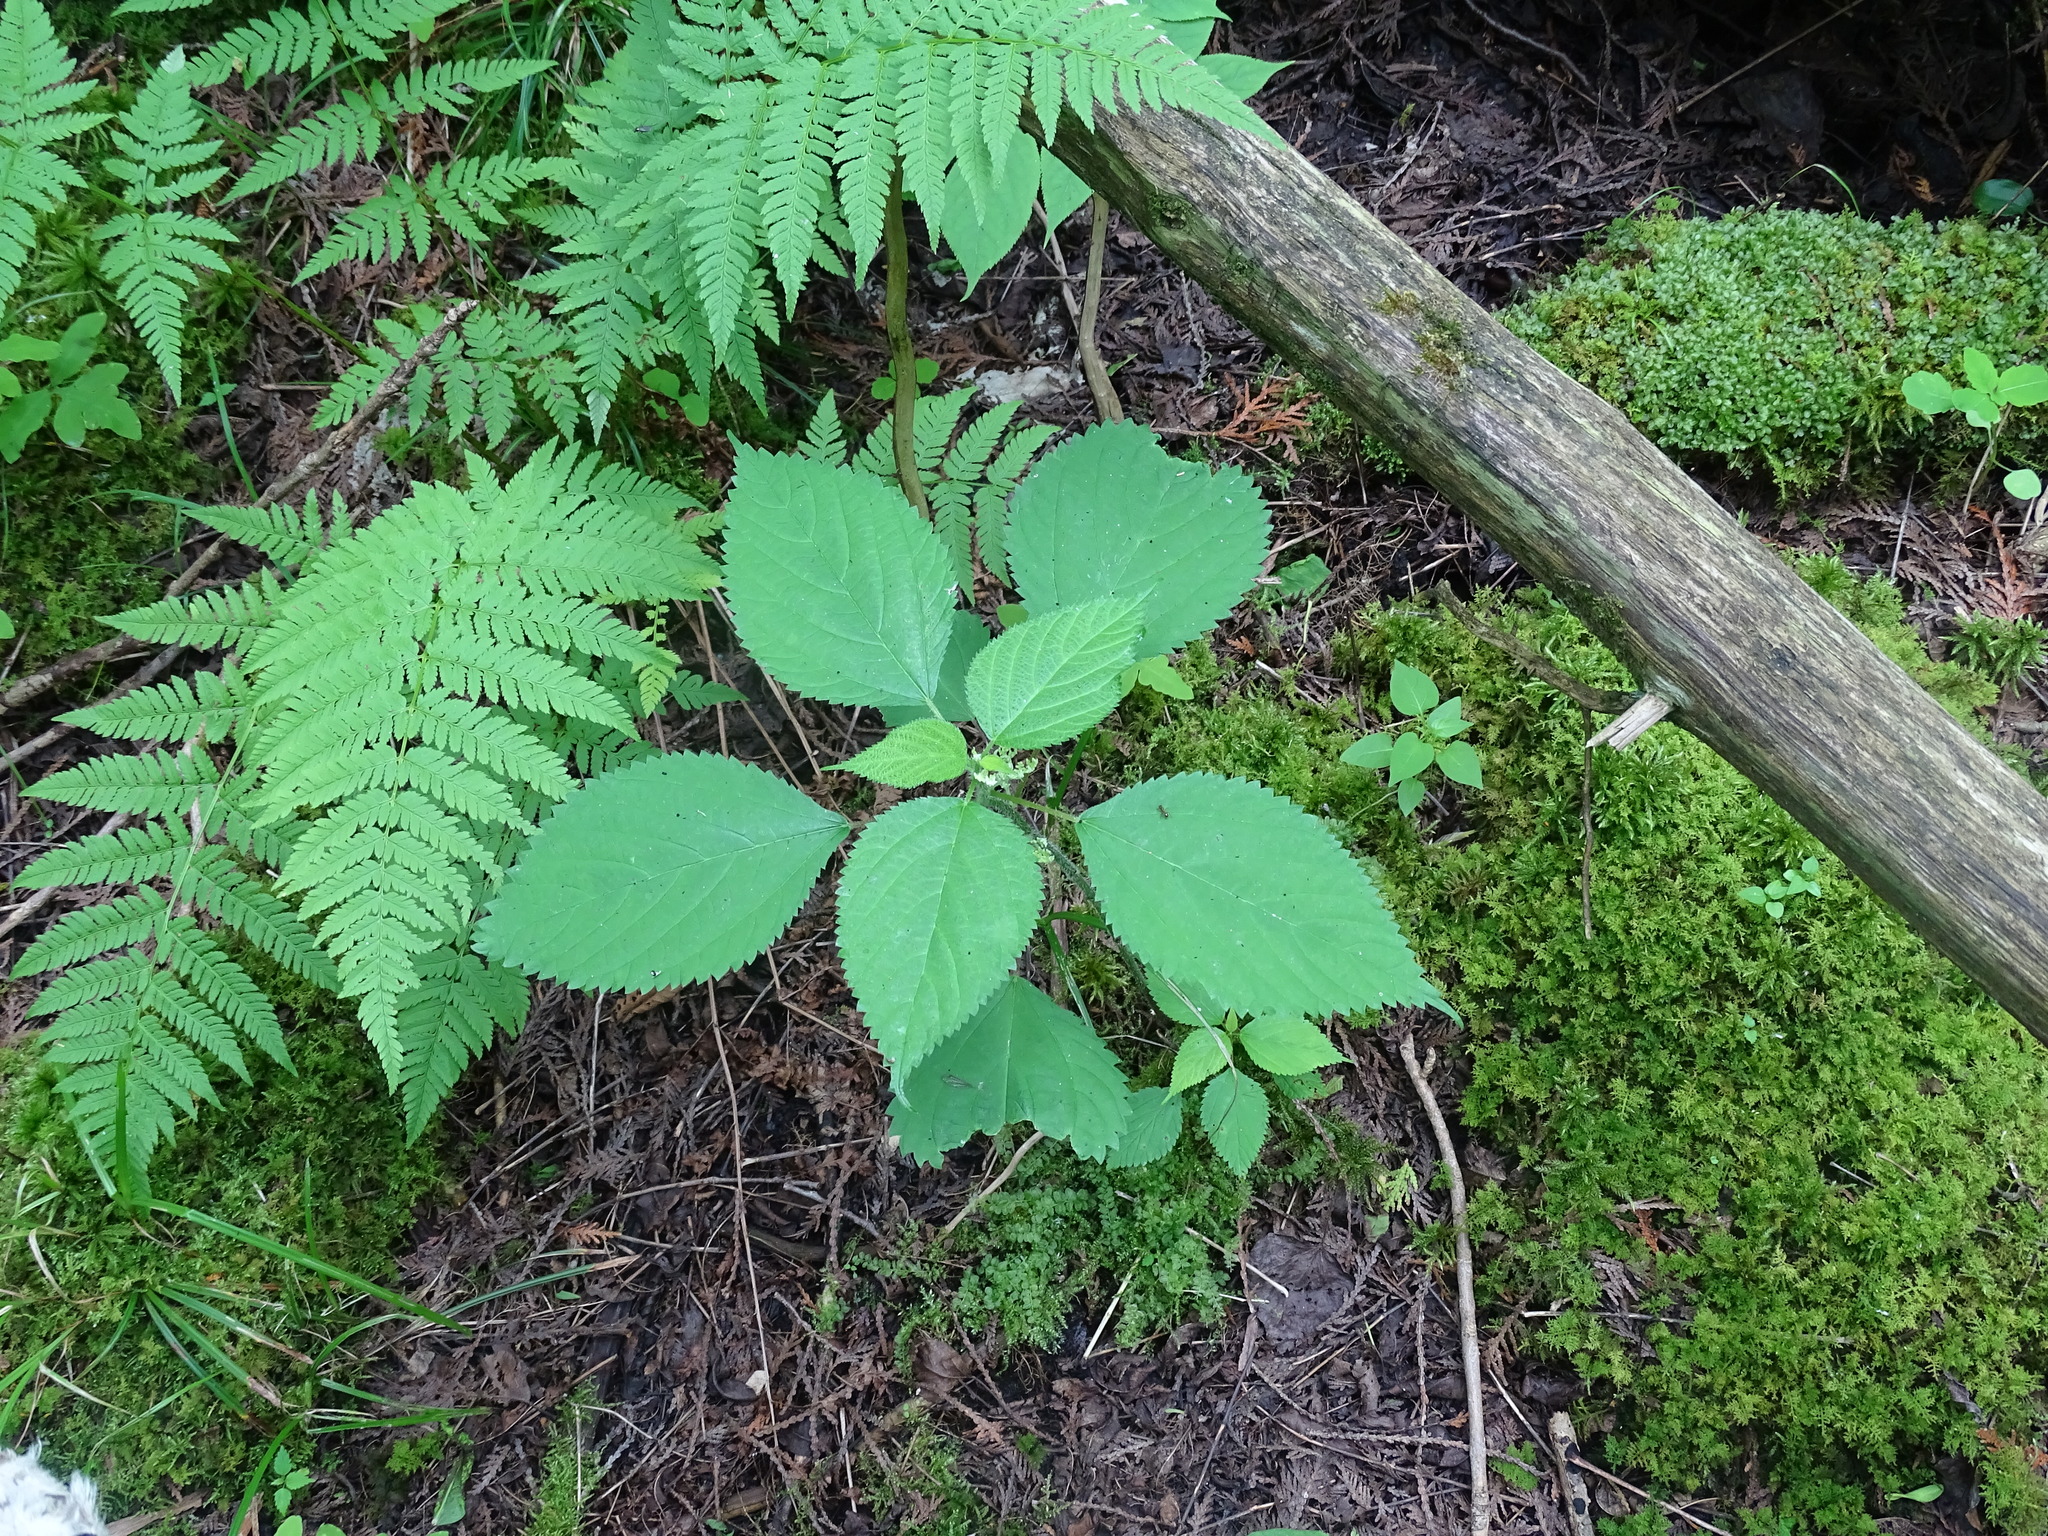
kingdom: Plantae
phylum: Tracheophyta
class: Magnoliopsida
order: Rosales
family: Urticaceae
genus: Laportea
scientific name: Laportea canadensis
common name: Canada nettle
